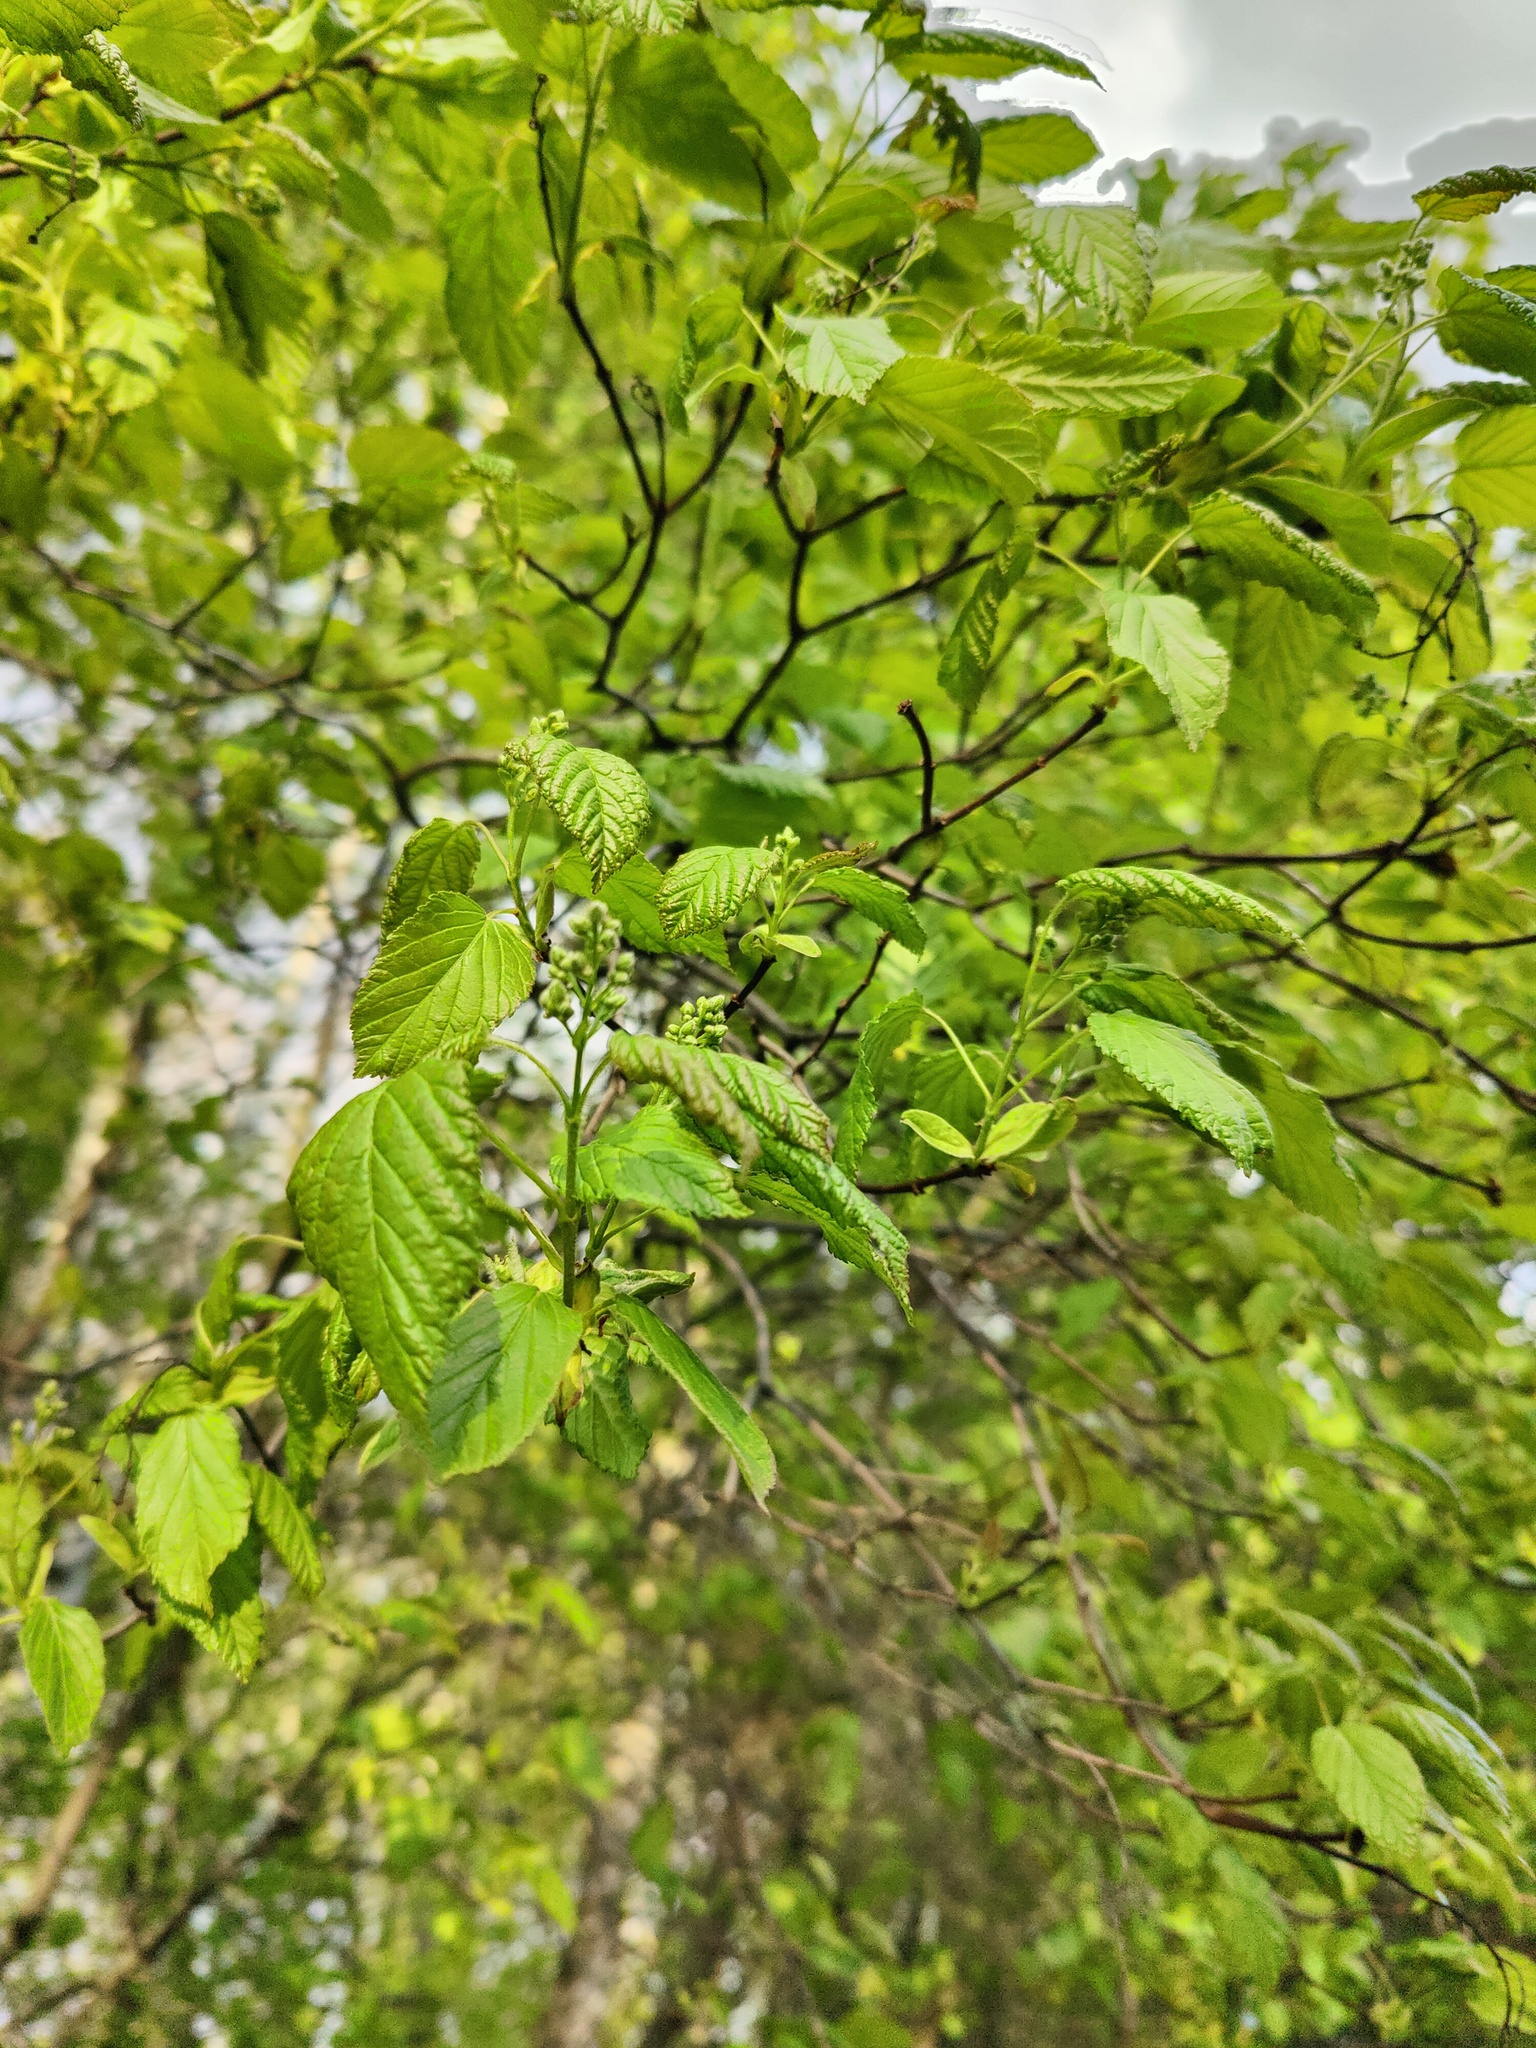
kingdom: Plantae
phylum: Tracheophyta
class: Magnoliopsida
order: Sapindales
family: Sapindaceae
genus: Acer
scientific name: Acer tataricum
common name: Tartar maple
